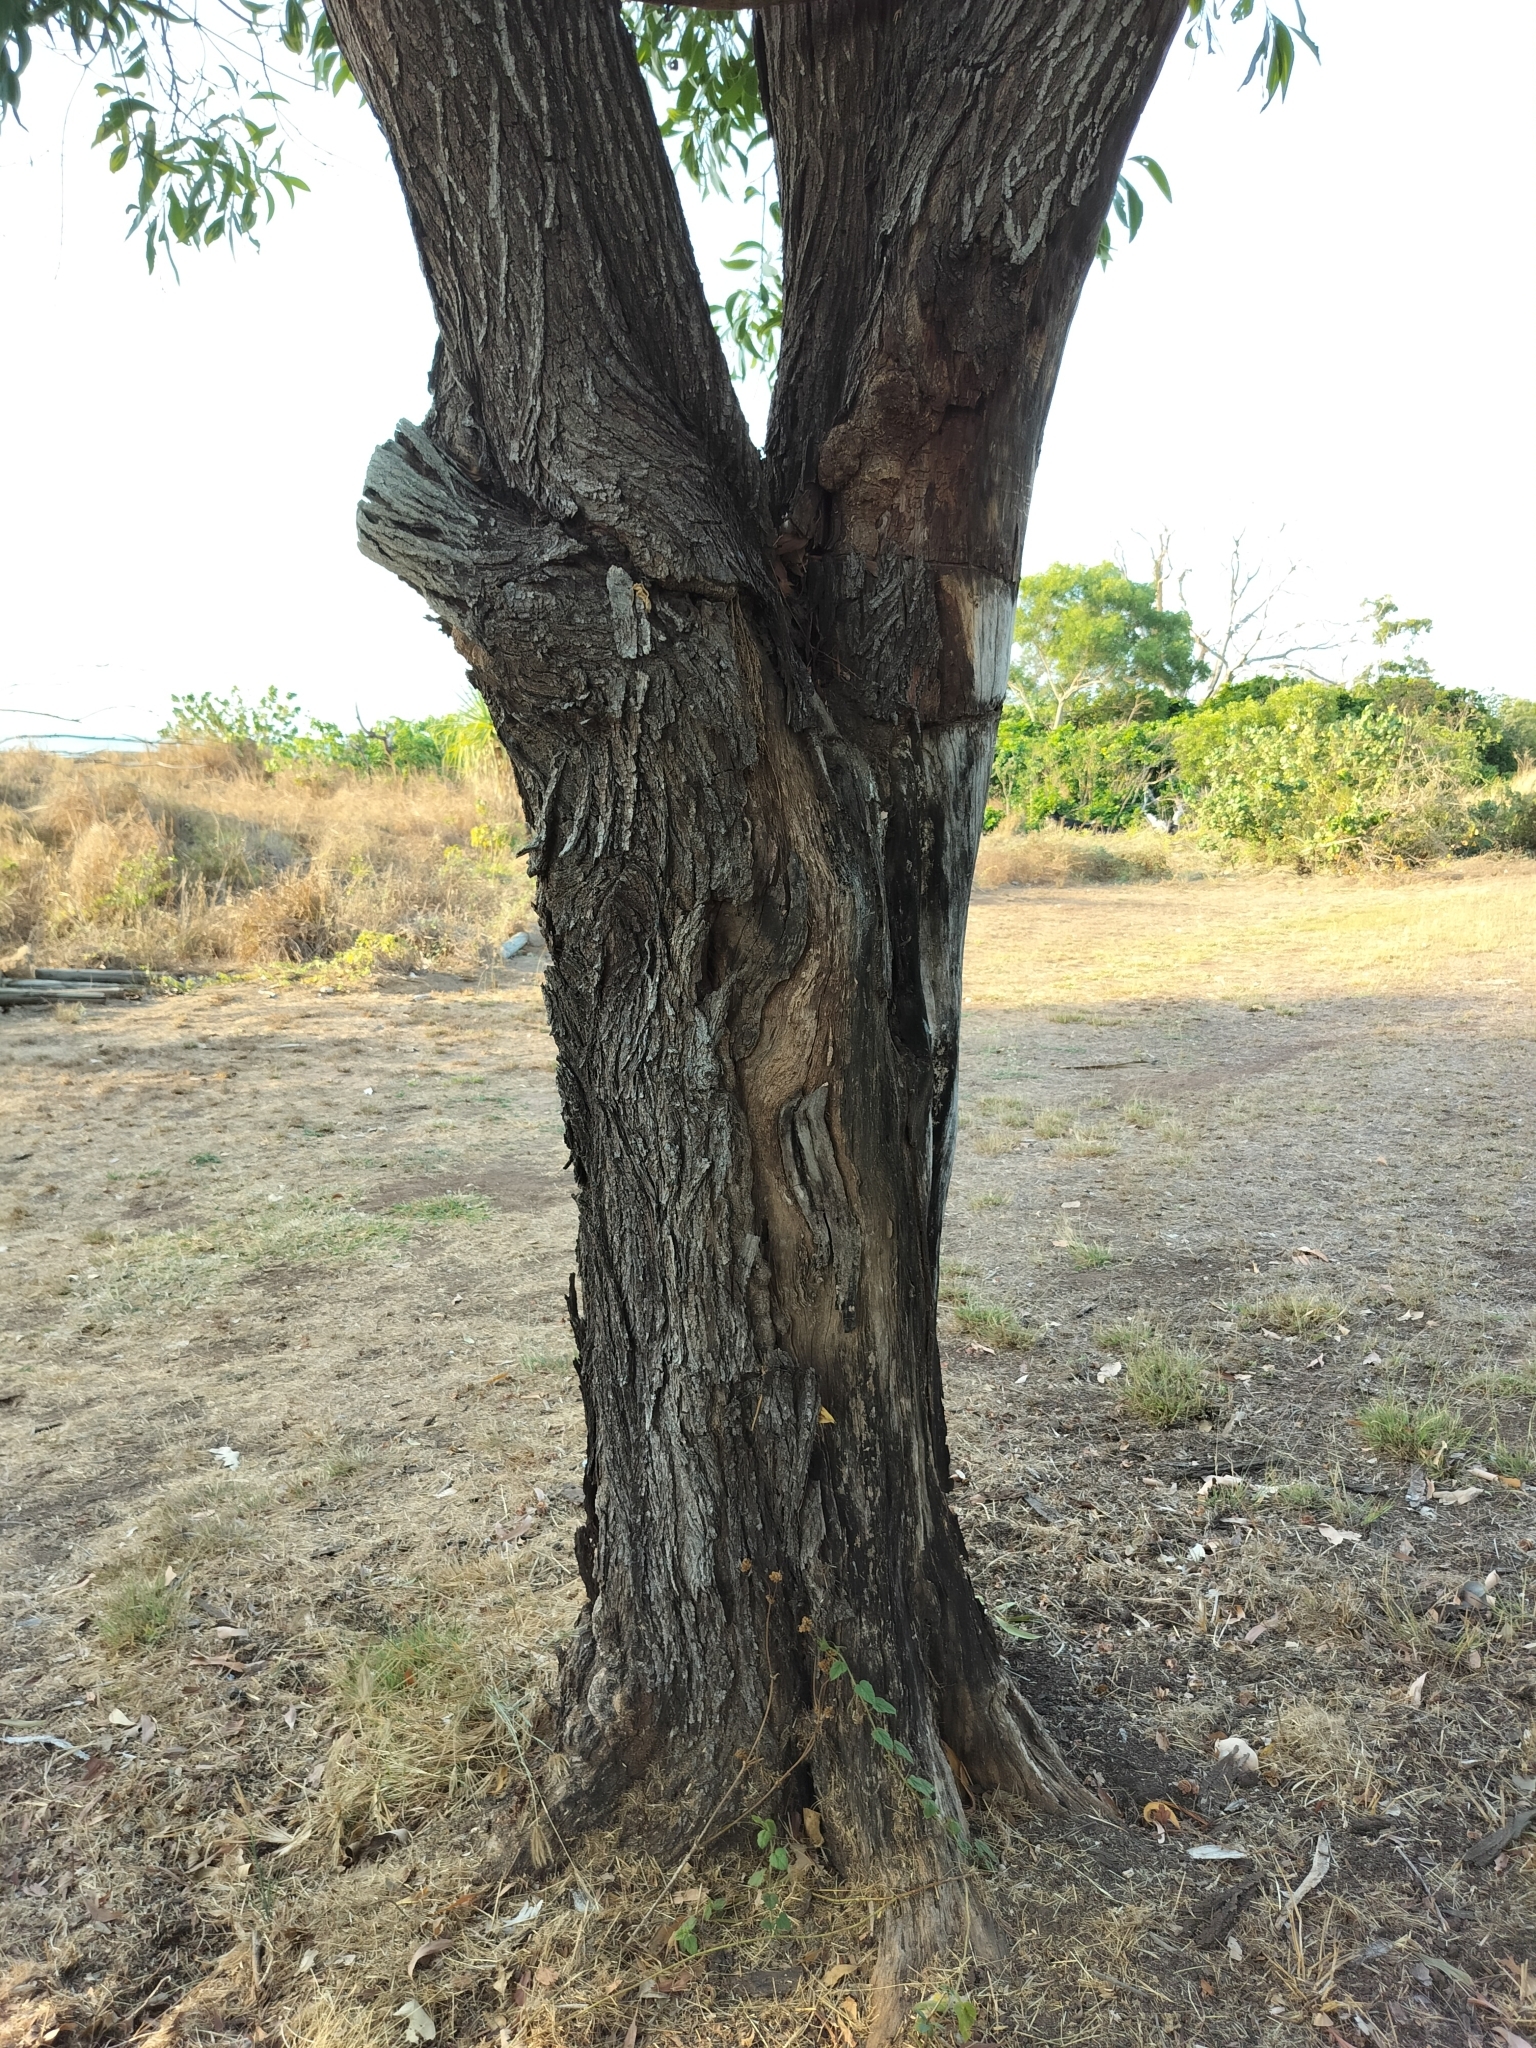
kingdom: Plantae
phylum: Tracheophyta
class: Magnoliopsida
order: Fabales
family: Fabaceae
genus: Acacia
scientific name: Acacia auriculiformis
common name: Earleaf acacia
